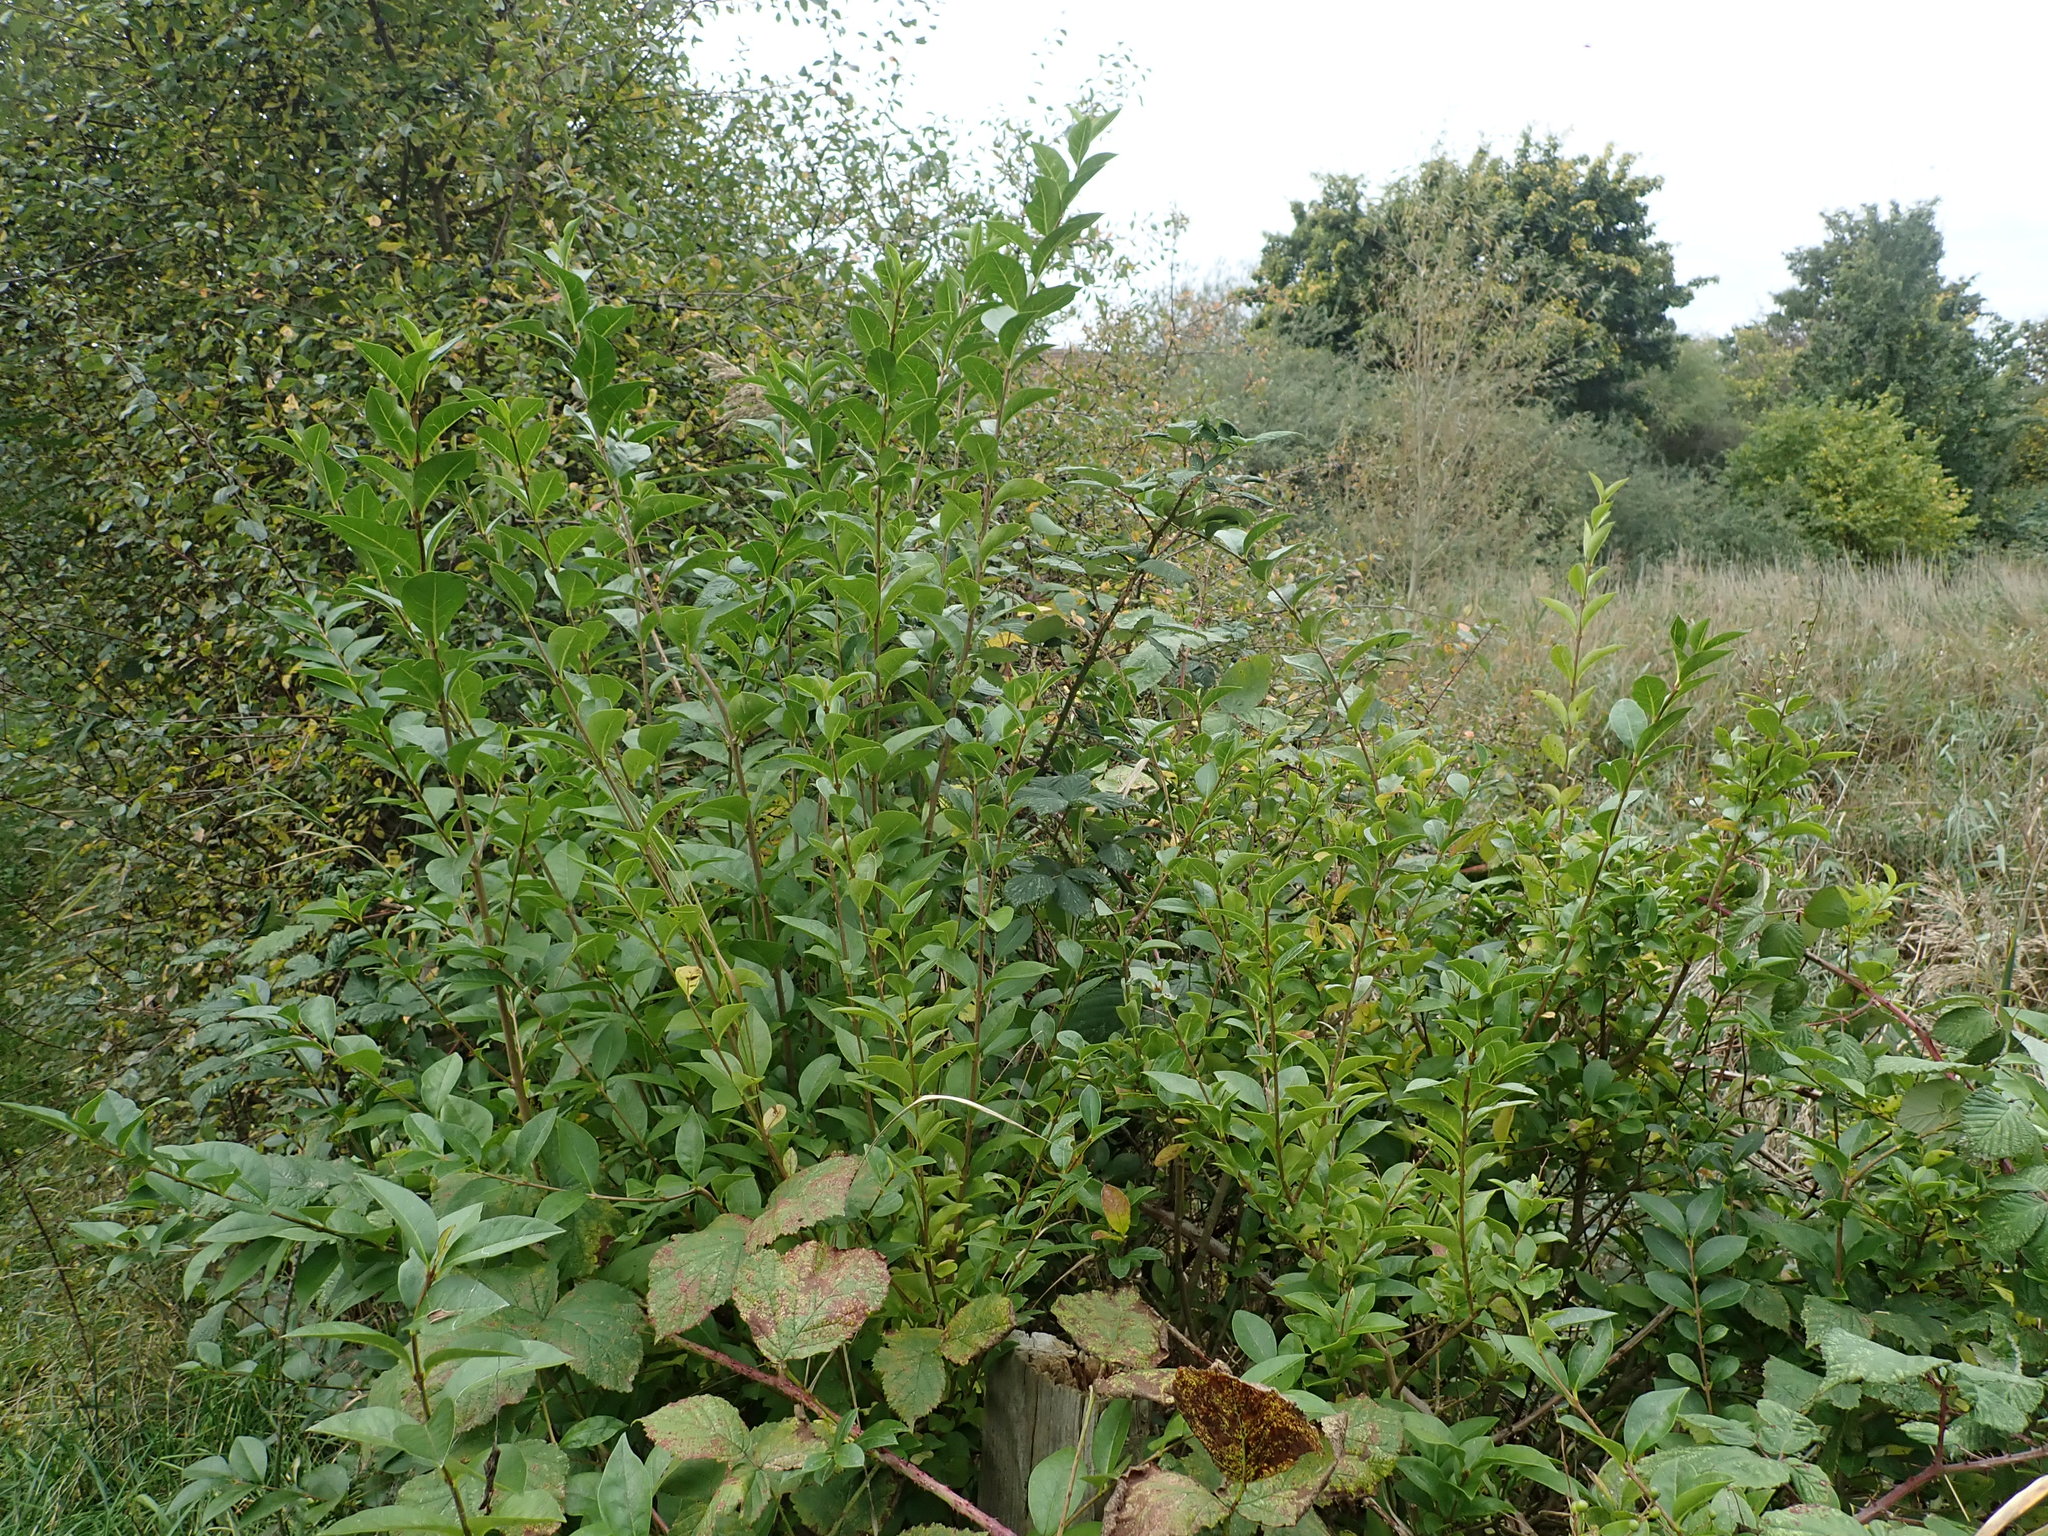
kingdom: Plantae
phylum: Tracheophyta
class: Magnoliopsida
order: Lamiales
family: Oleaceae
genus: Ligustrum
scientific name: Ligustrum ovalifolium
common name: California privet
